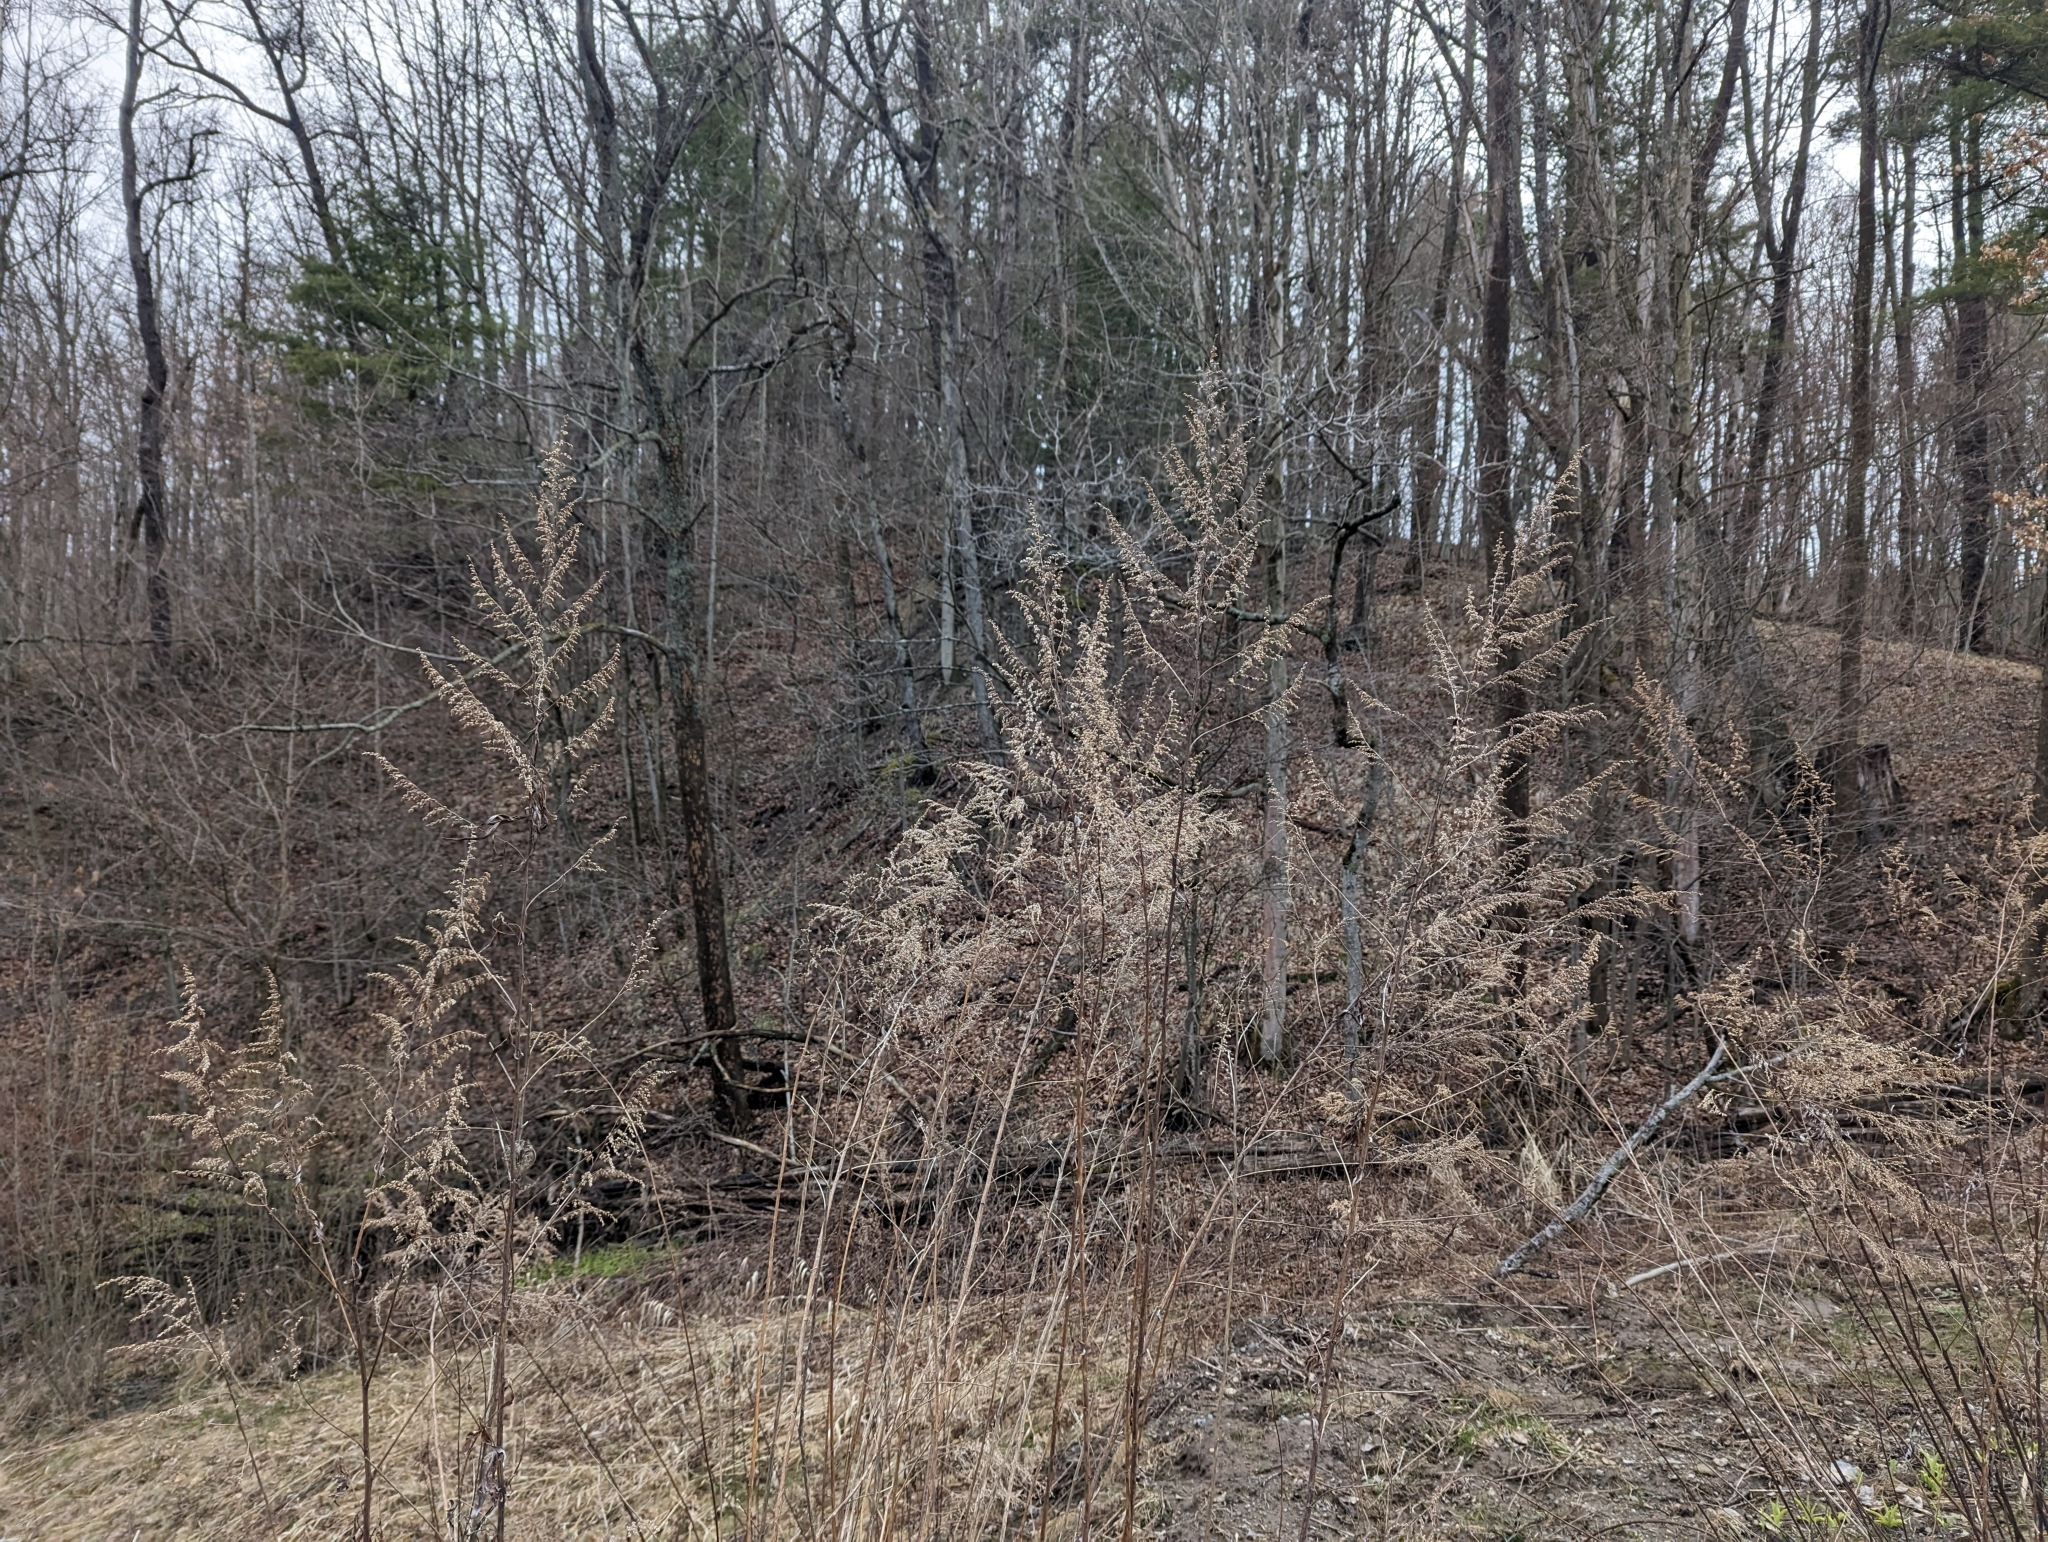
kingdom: Plantae
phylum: Tracheophyta
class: Magnoliopsida
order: Asterales
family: Asteraceae
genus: Artemisia
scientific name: Artemisia vulgaris
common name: Mugwort
